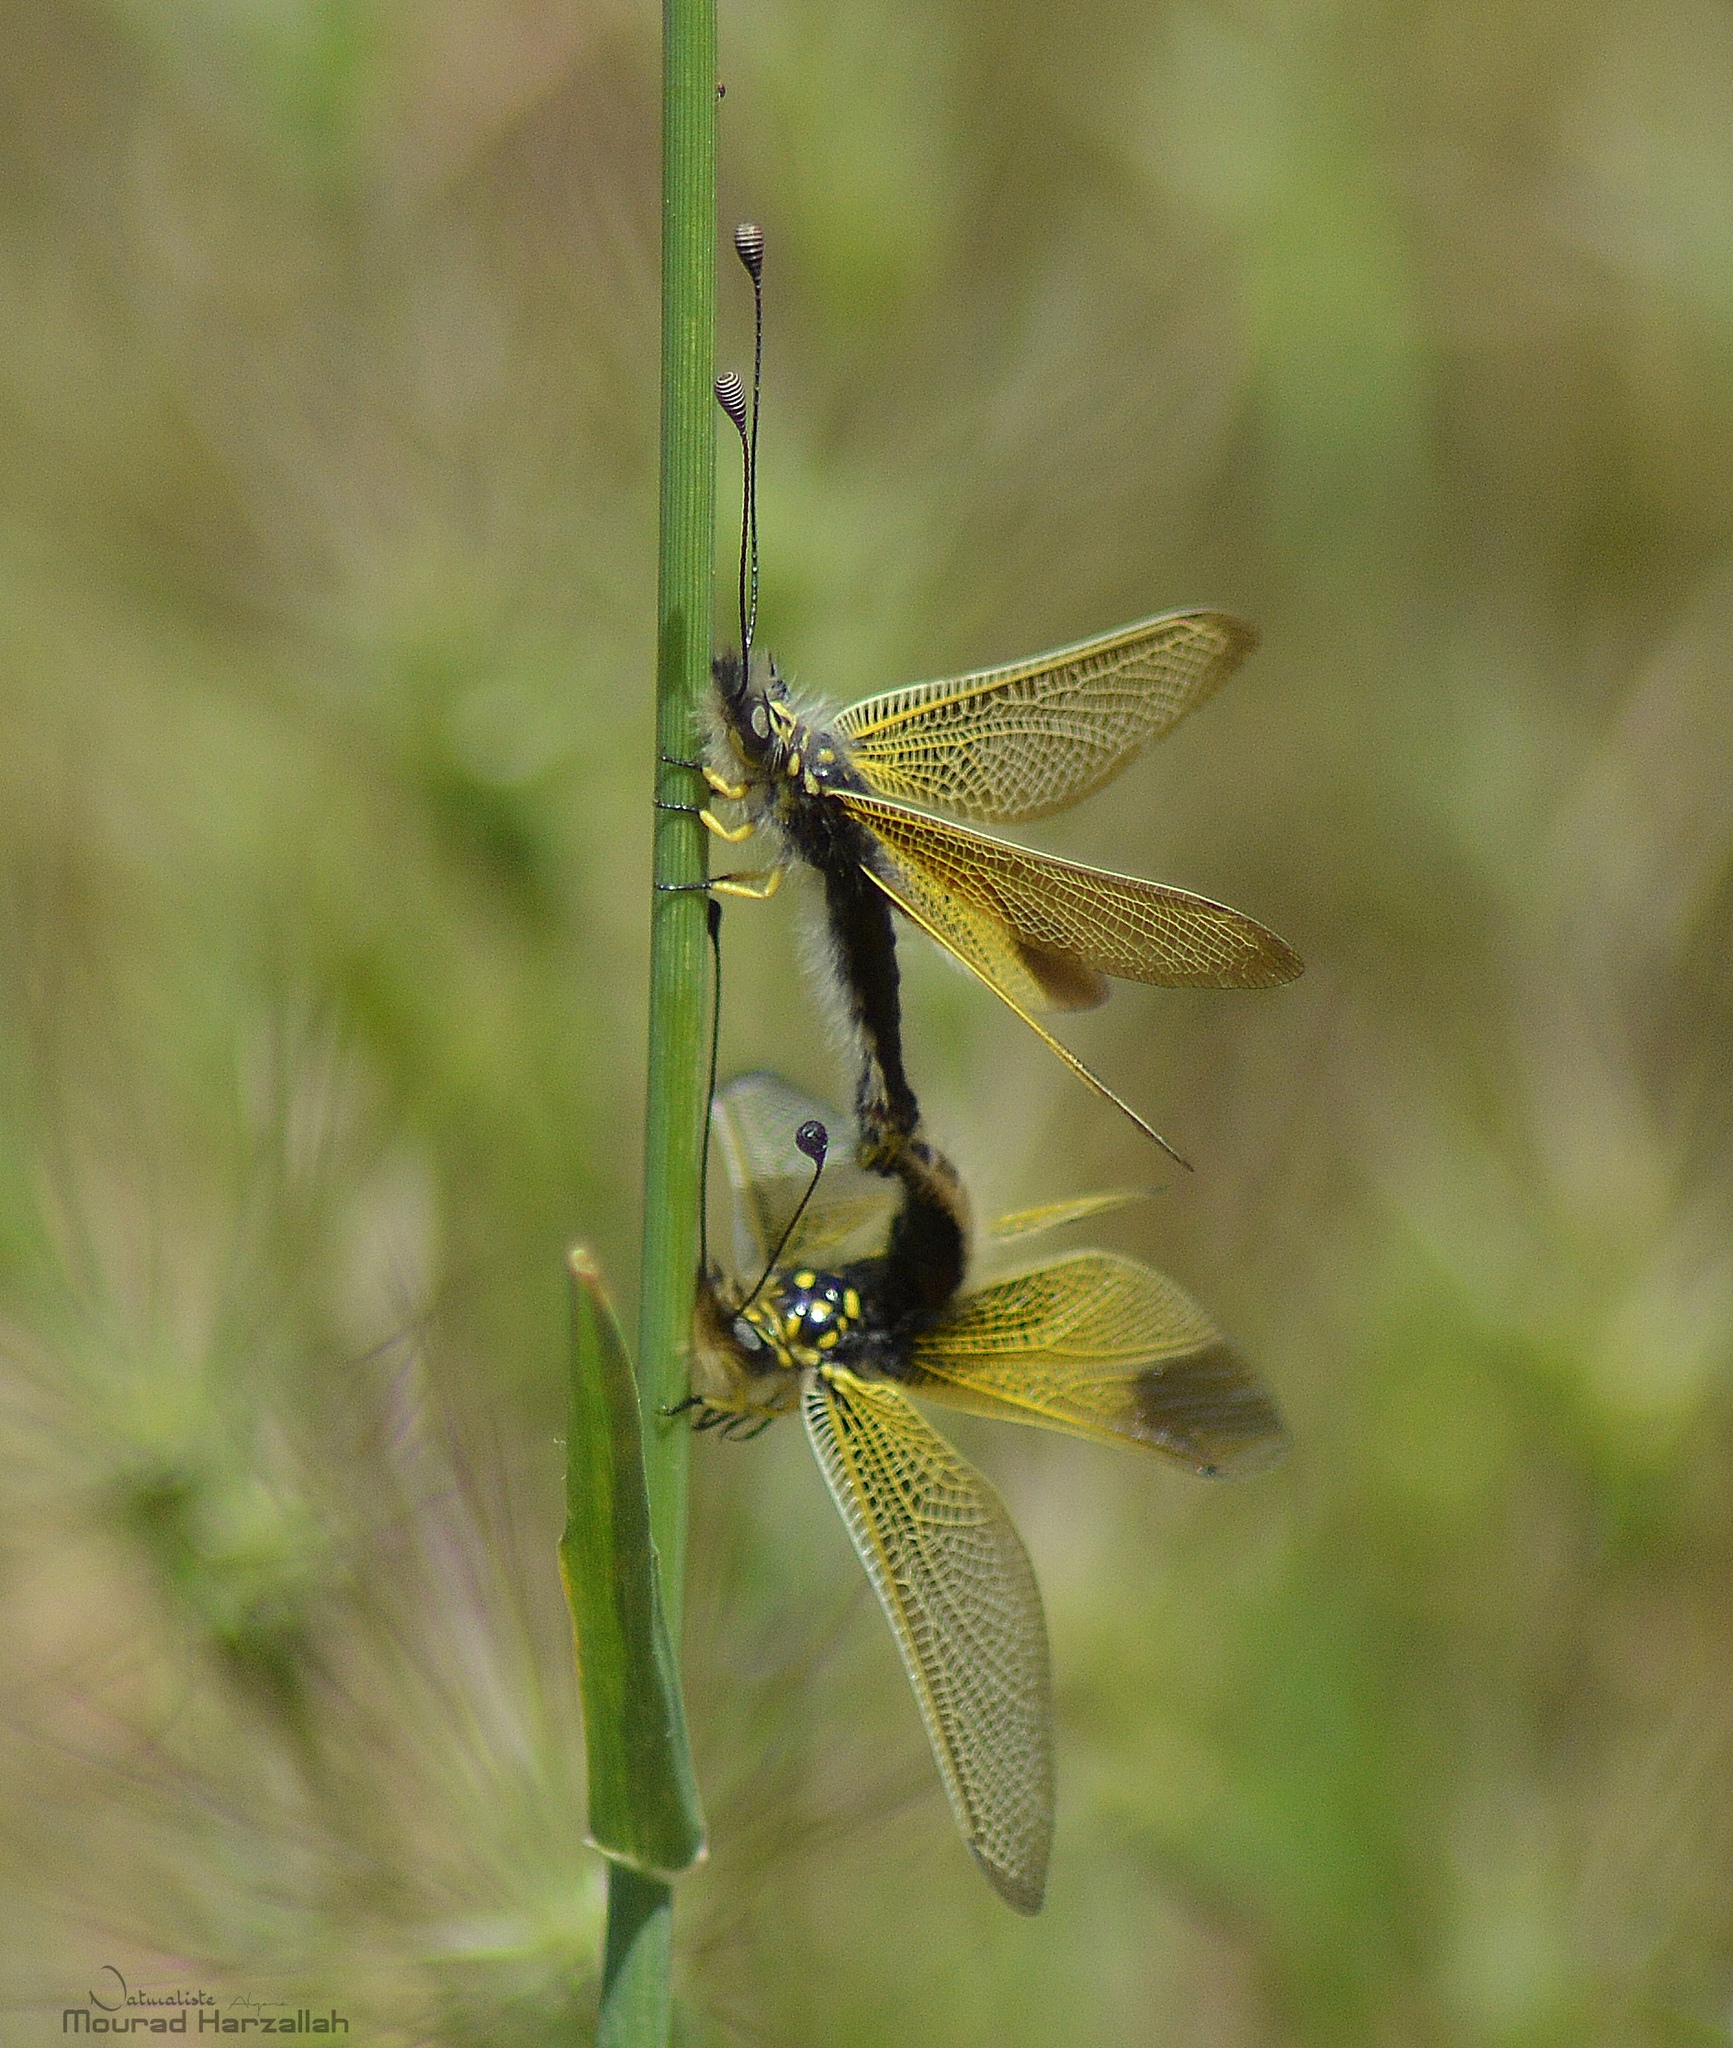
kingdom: Animalia
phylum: Arthropoda
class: Insecta
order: Neuroptera
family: Ascalaphidae
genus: Libelloides
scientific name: Libelloides ictericus
